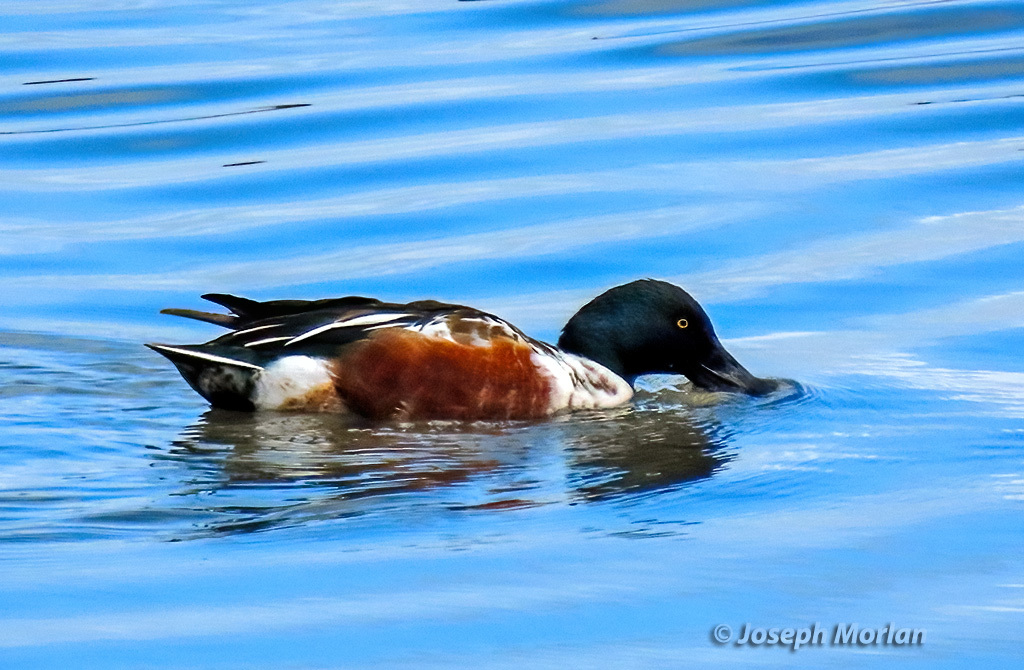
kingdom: Animalia
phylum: Chordata
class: Aves
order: Anseriformes
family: Anatidae
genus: Spatula
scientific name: Spatula clypeata
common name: Northern shoveler
